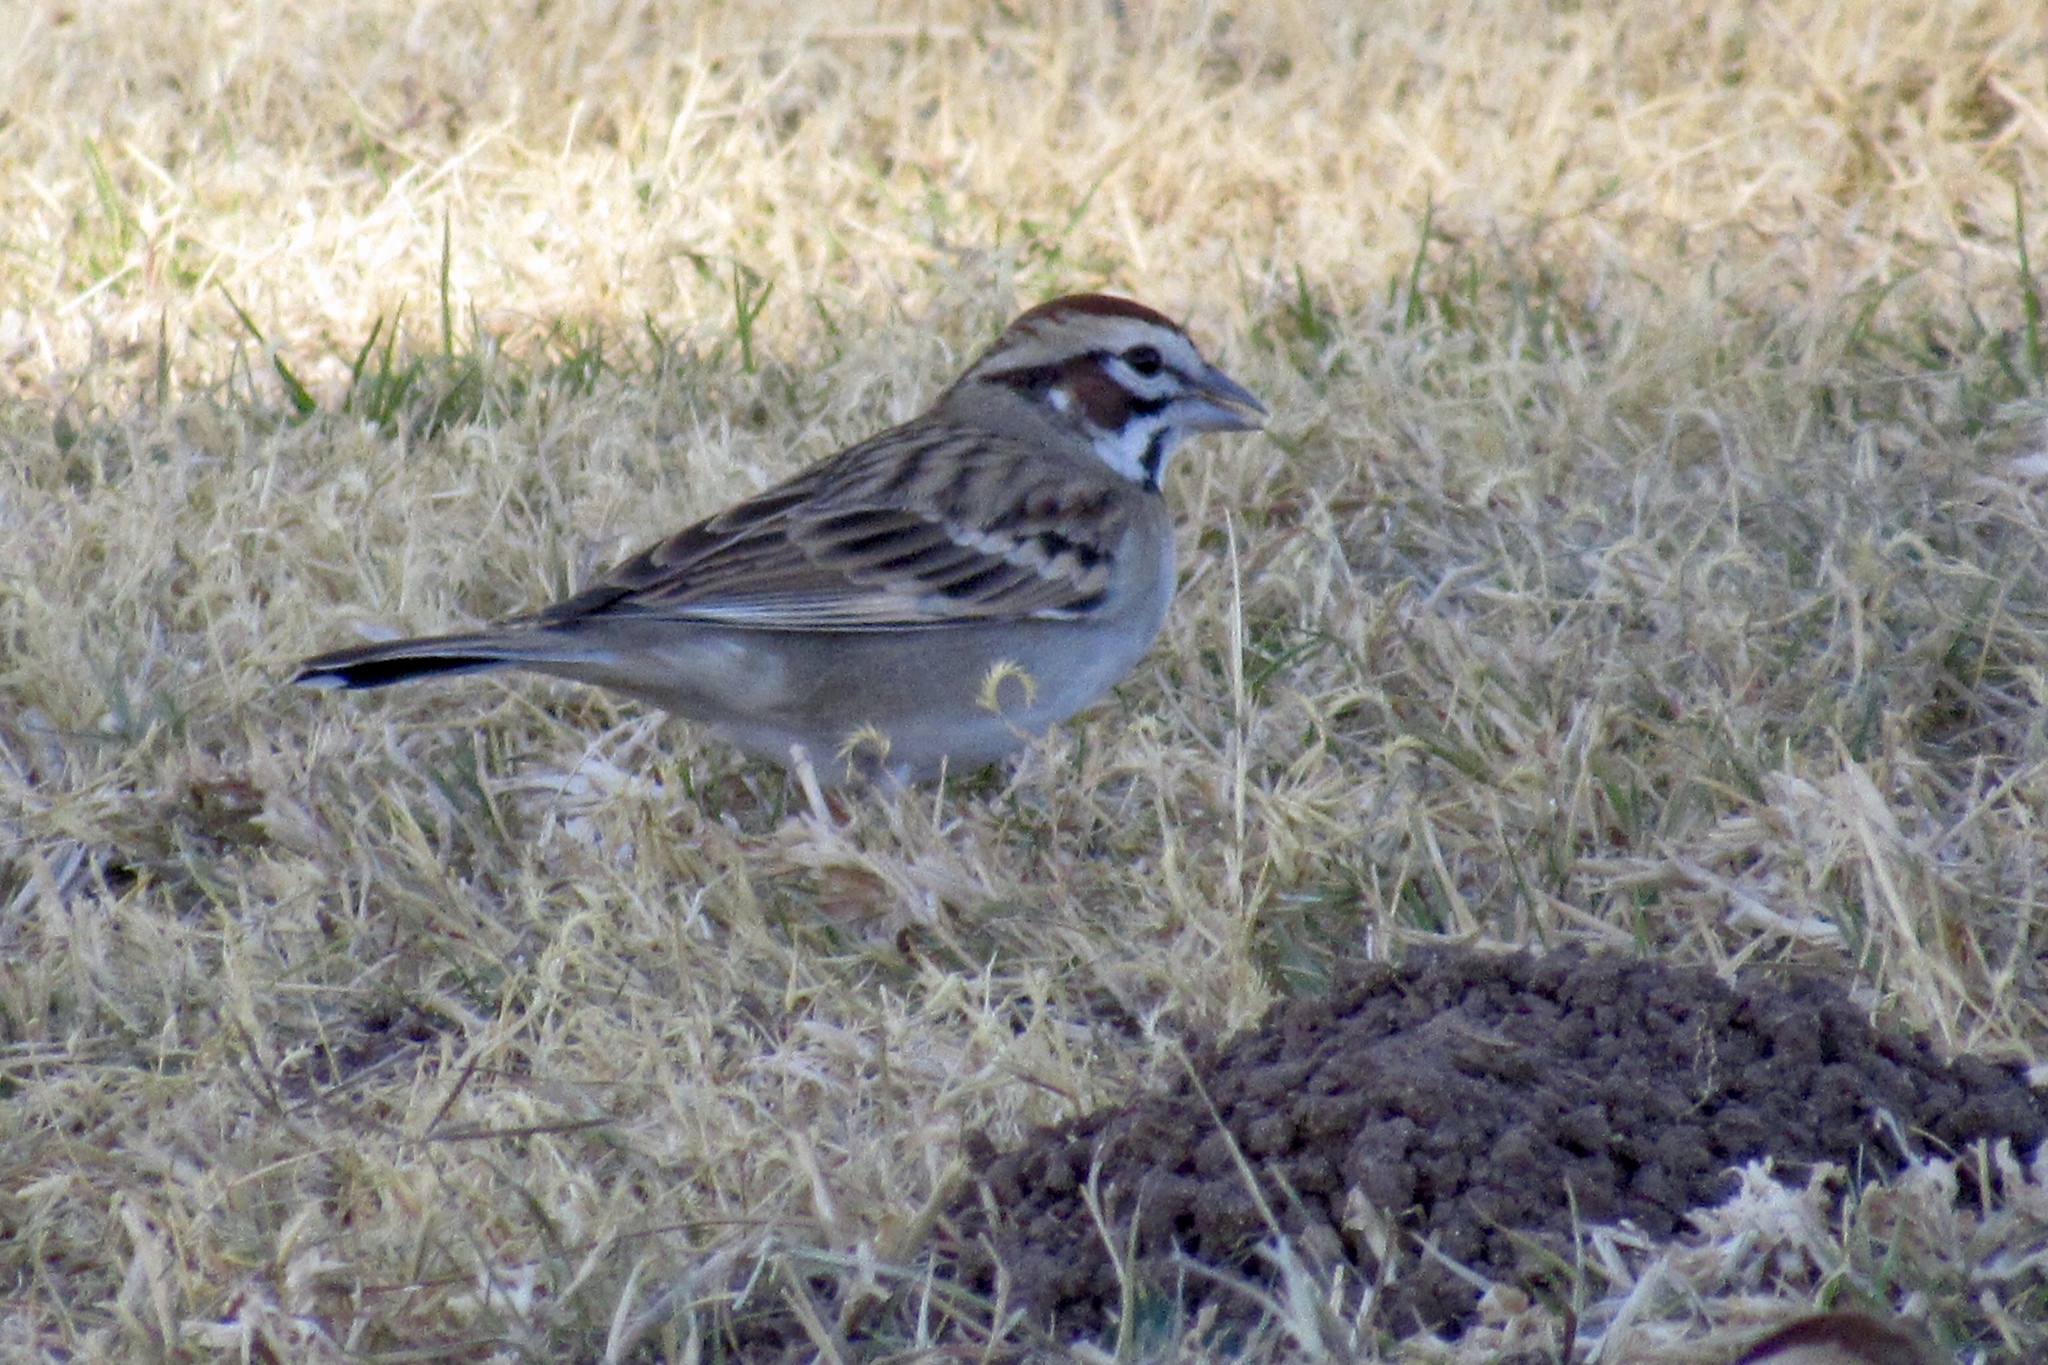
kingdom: Animalia
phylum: Chordata
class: Aves
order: Passeriformes
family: Passerellidae
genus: Chondestes
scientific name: Chondestes grammacus
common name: Lark sparrow
